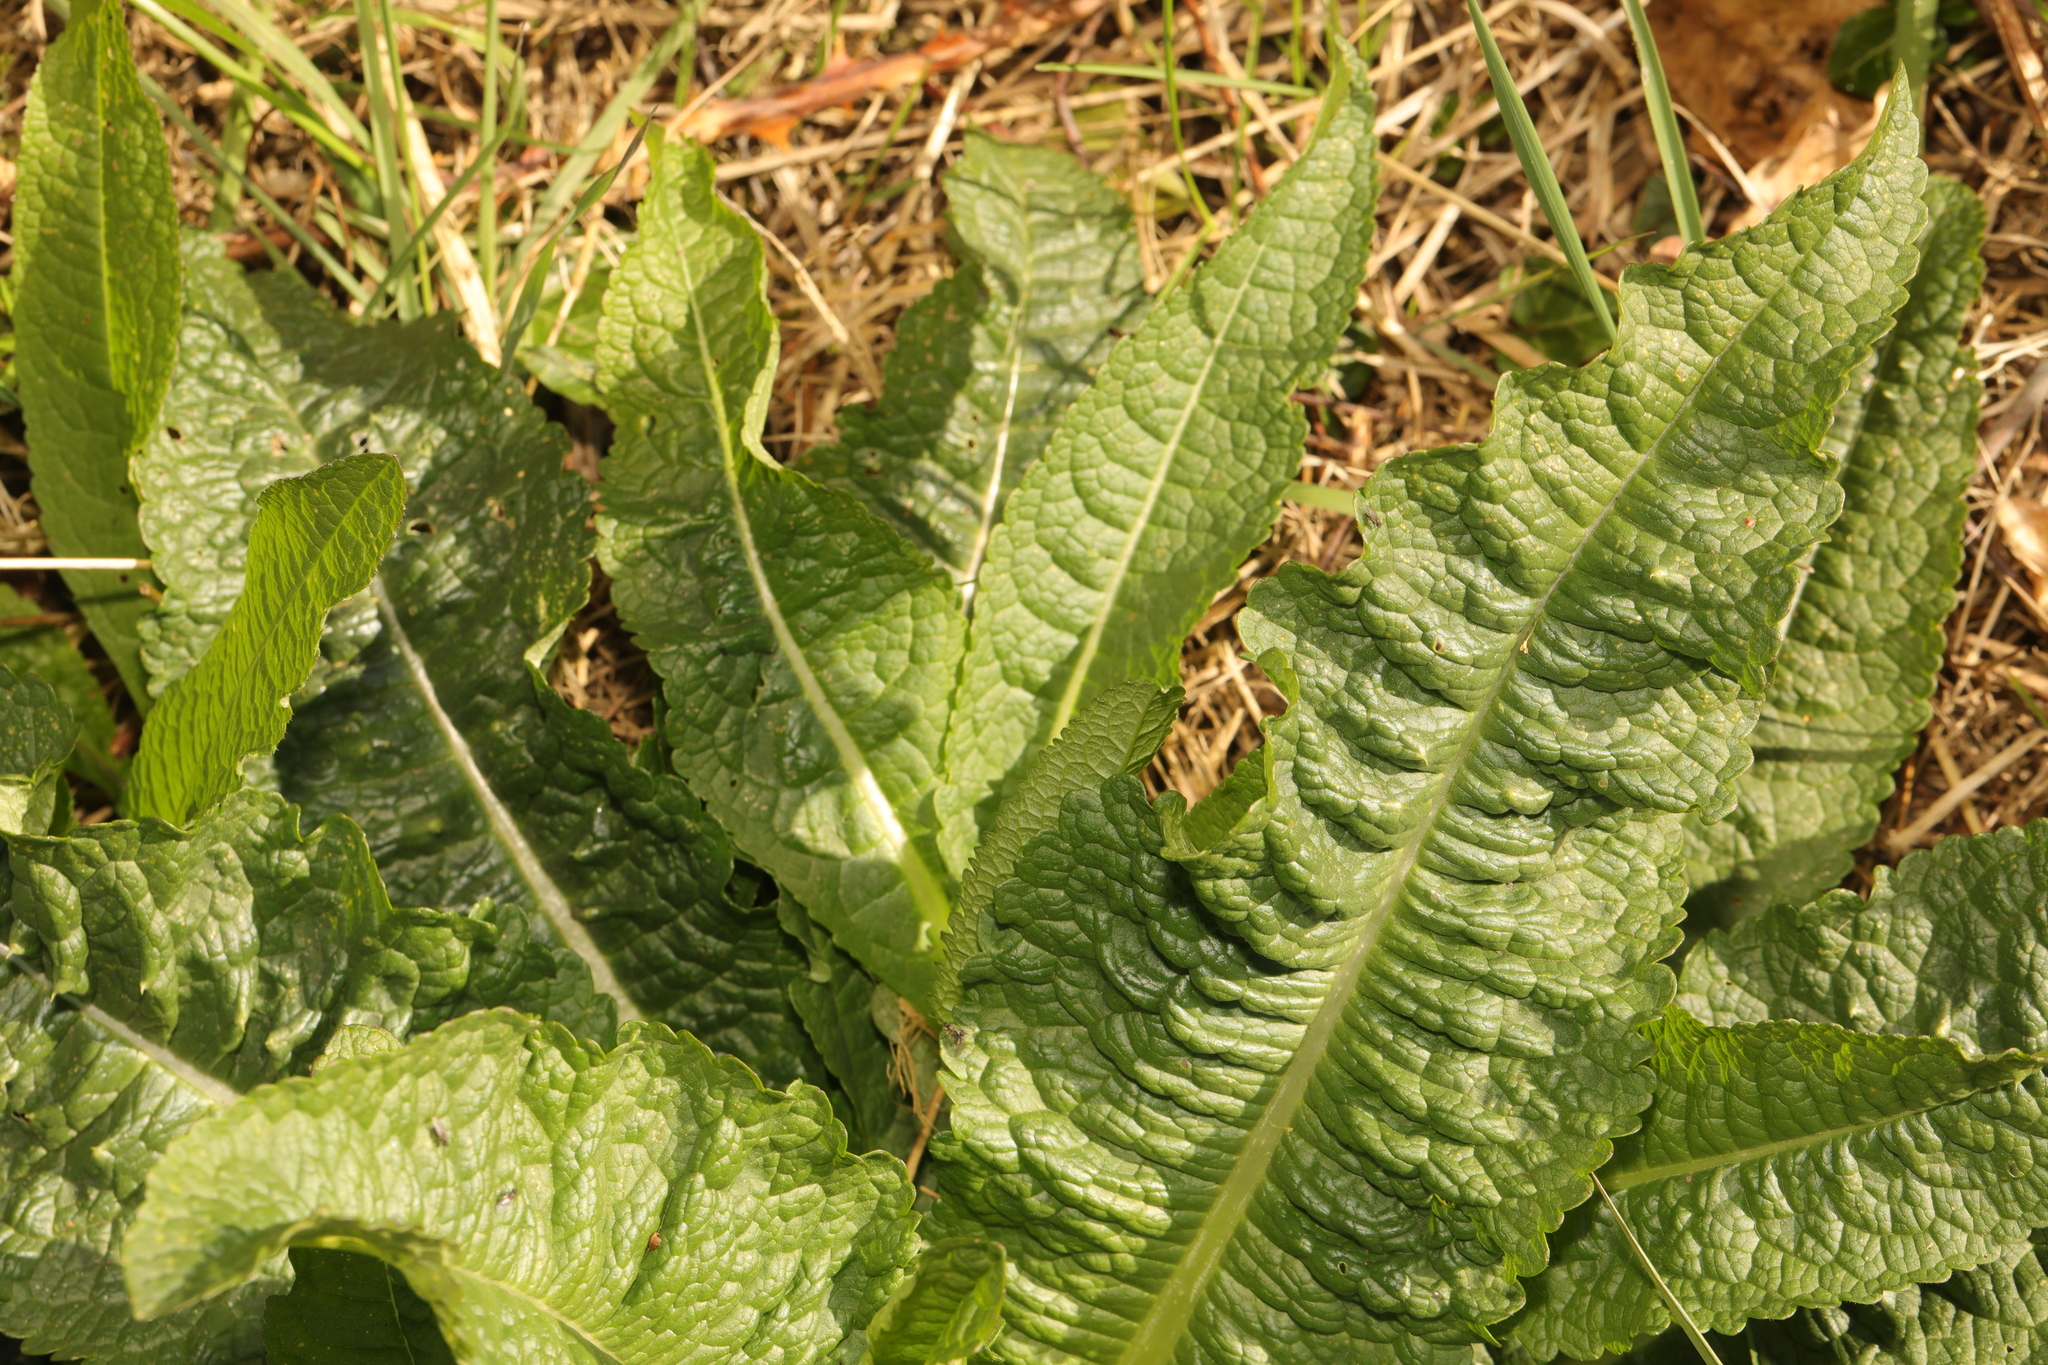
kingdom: Plantae
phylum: Tracheophyta
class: Magnoliopsida
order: Dipsacales
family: Caprifoliaceae
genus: Dipsacus
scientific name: Dipsacus fullonum
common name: Teasel
